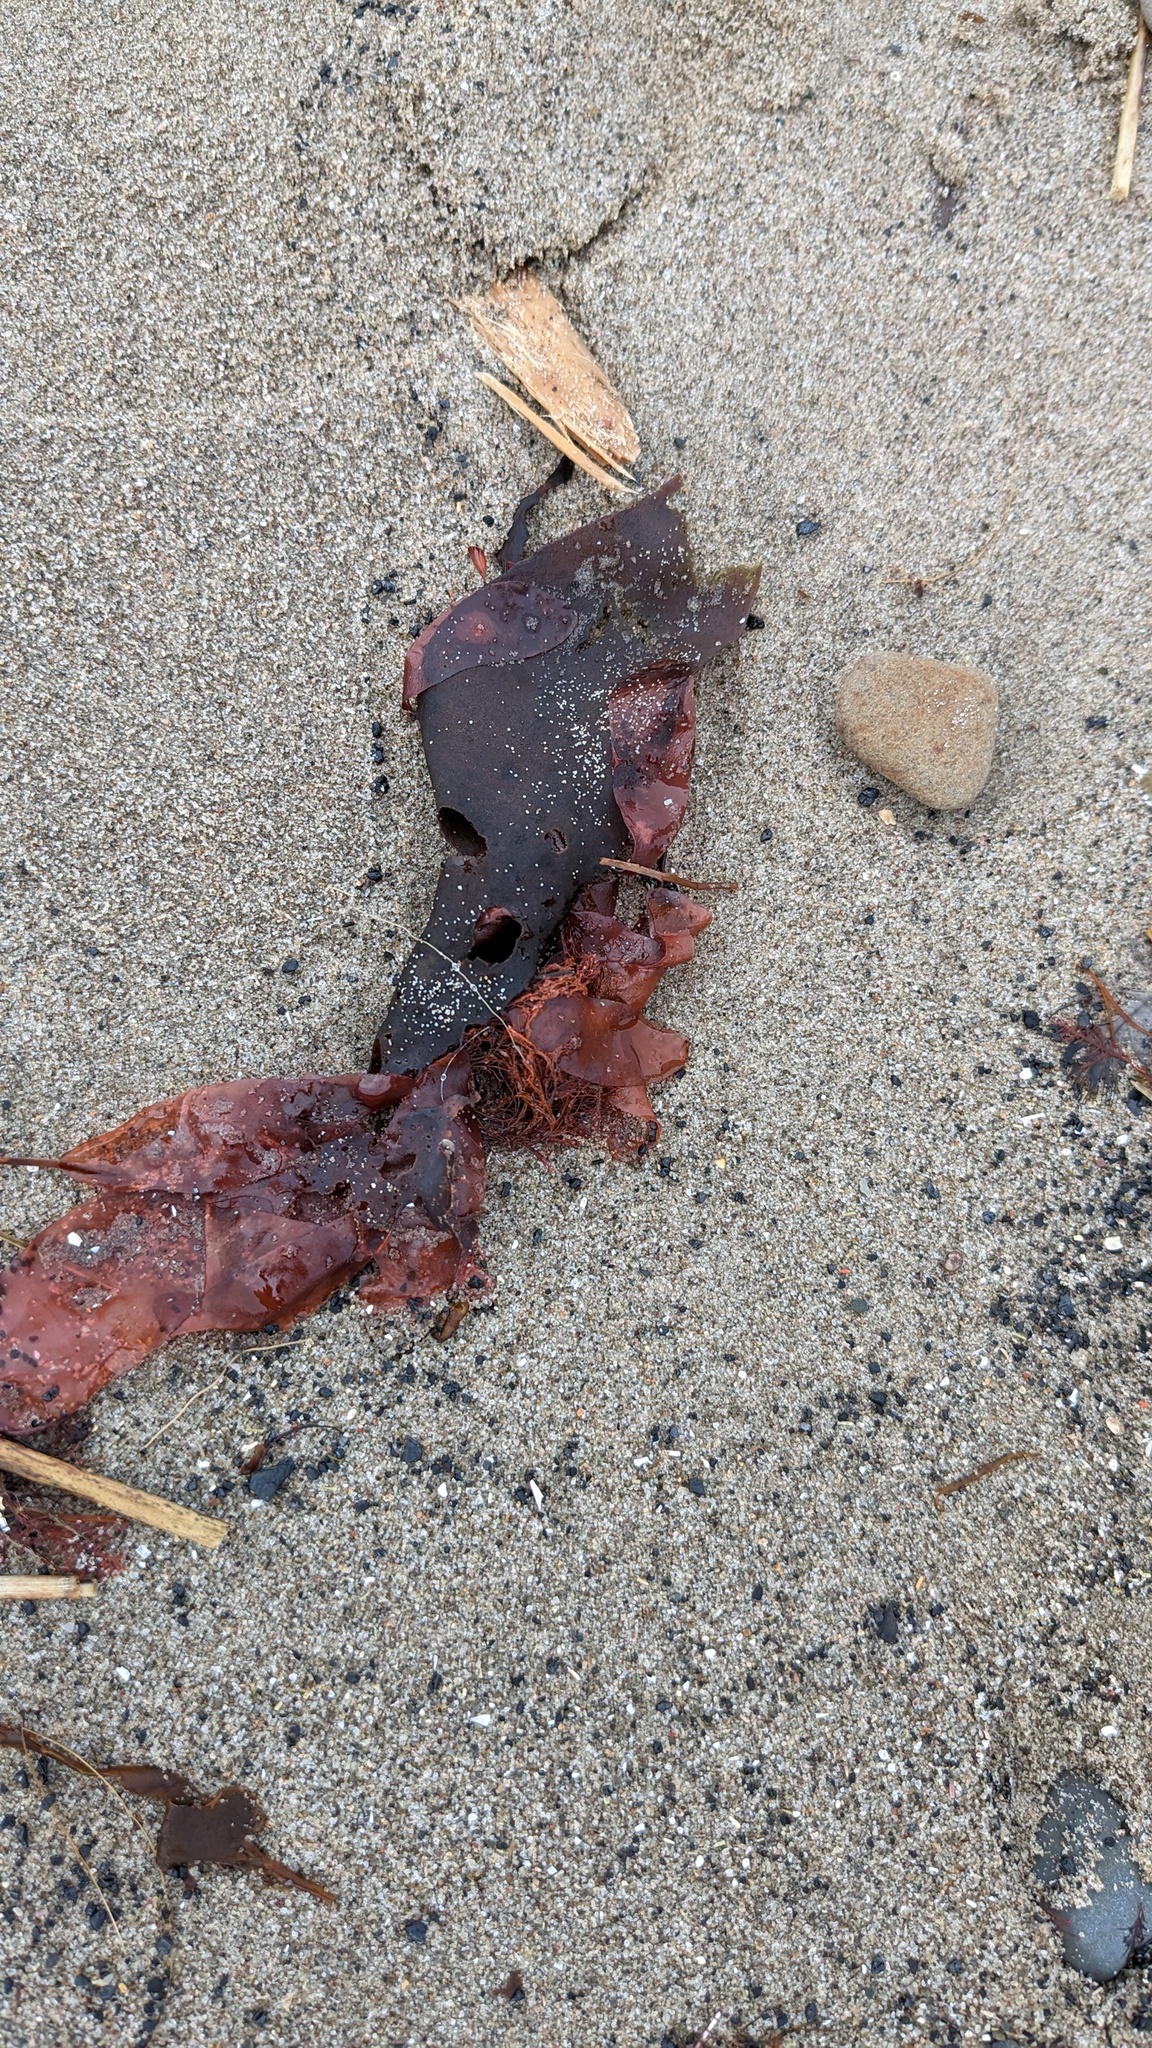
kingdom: Plantae
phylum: Rhodophyta
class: Florideophyceae
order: Palmariales
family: Palmariaceae
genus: Palmaria
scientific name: Palmaria palmata
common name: Dulse
